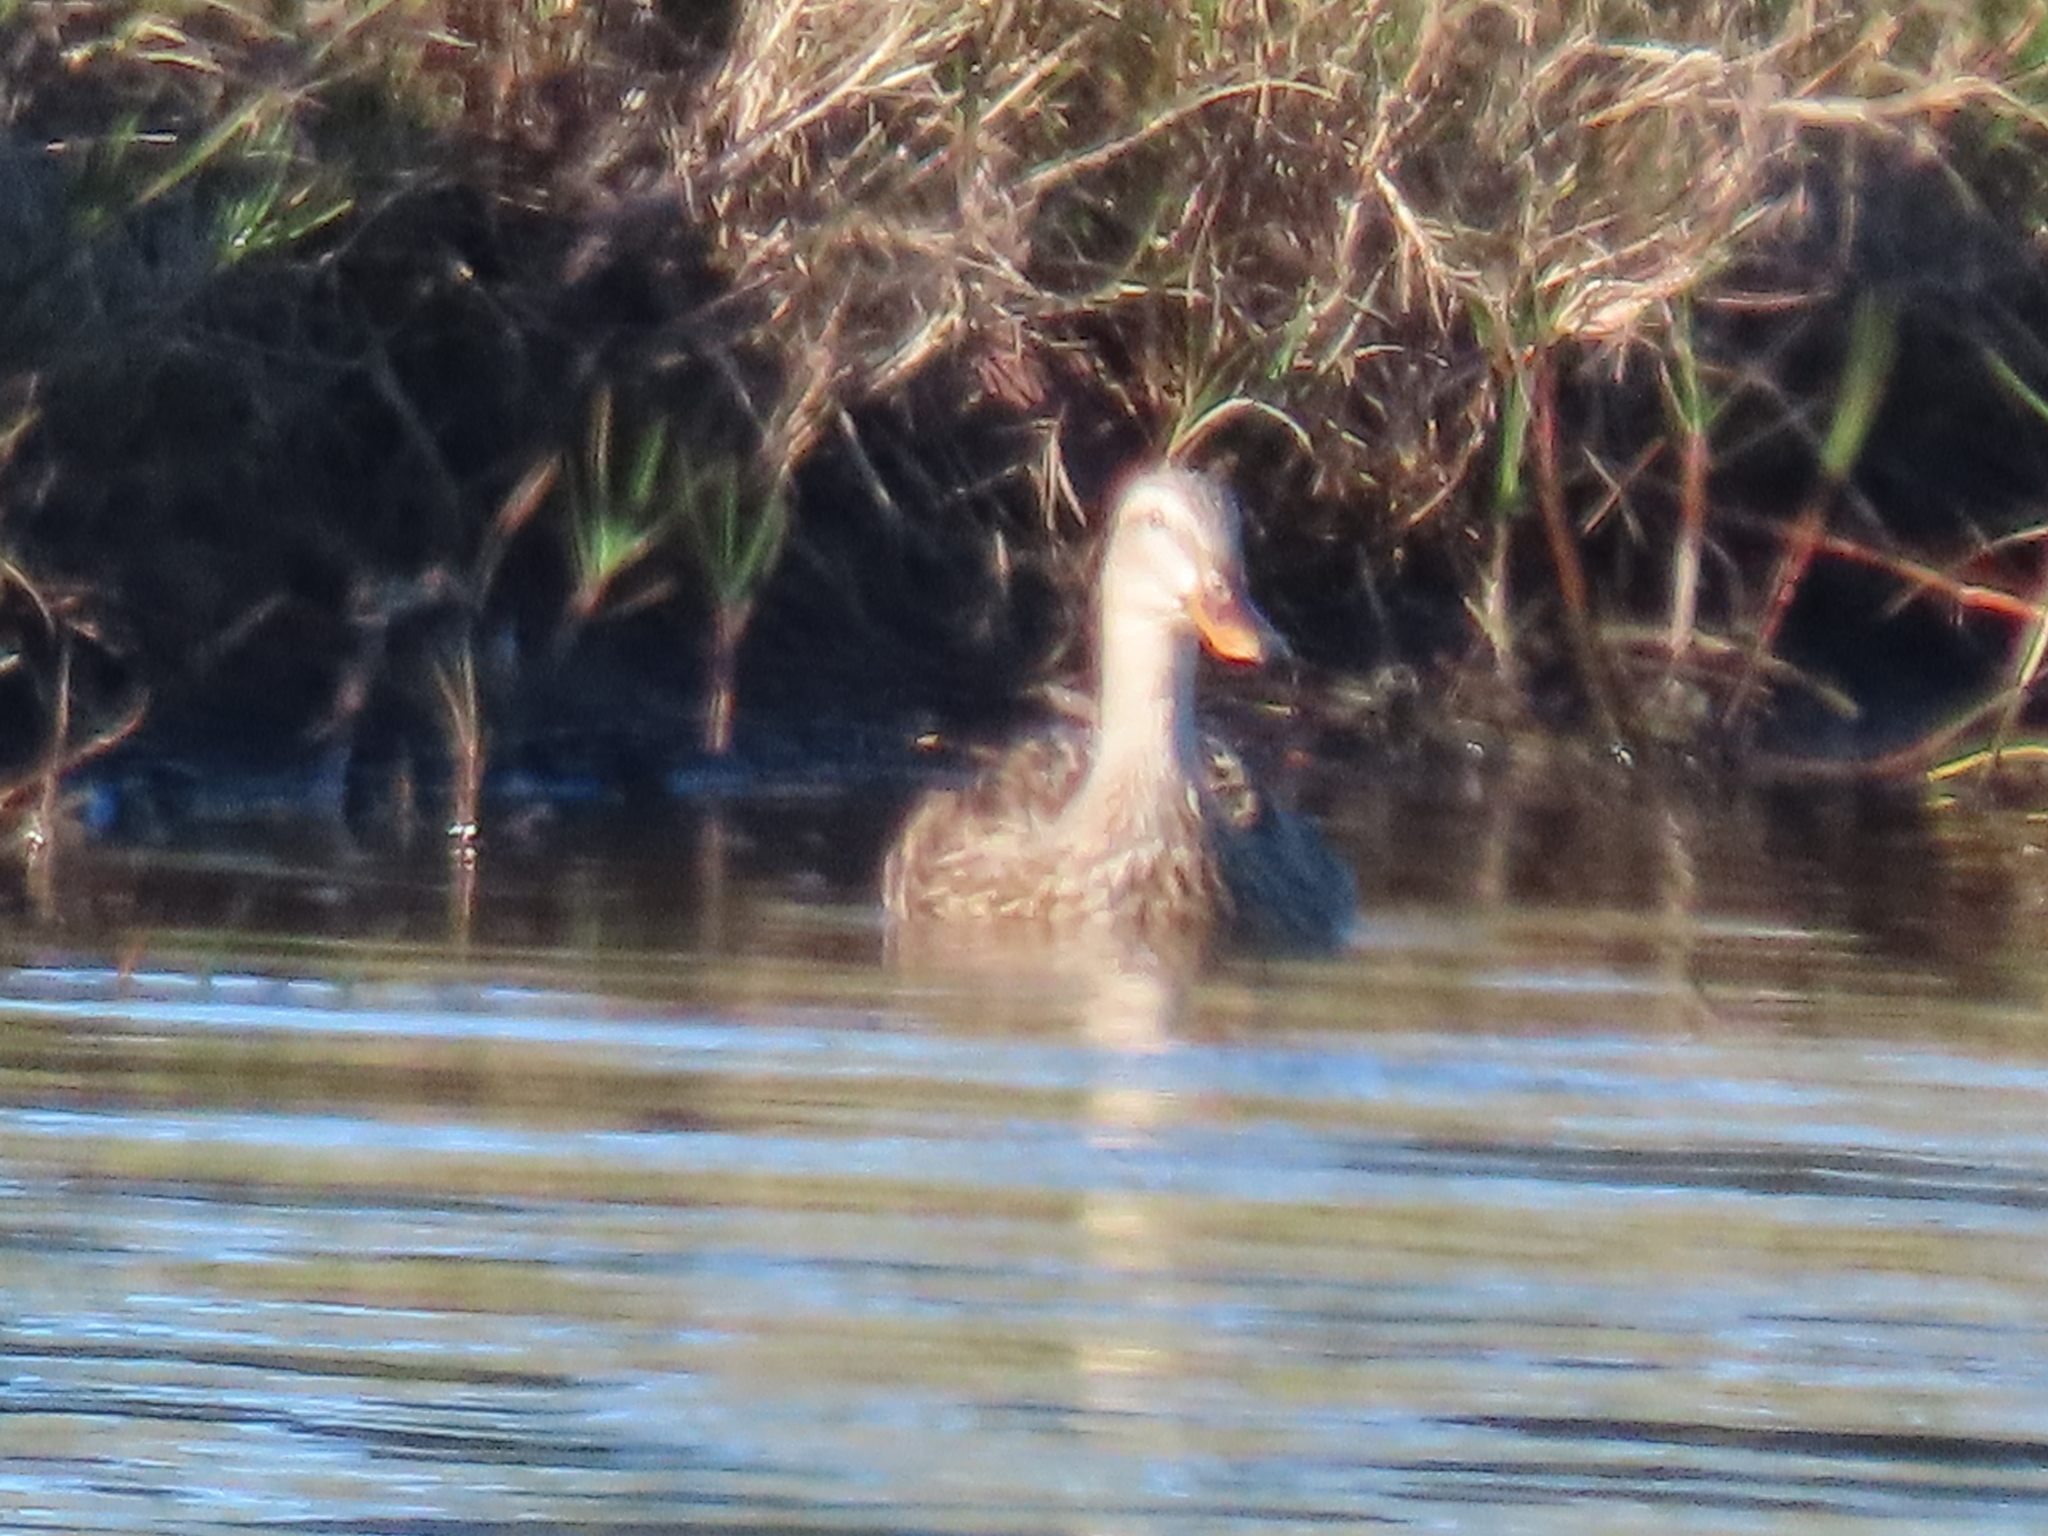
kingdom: Animalia
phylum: Chordata
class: Aves
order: Anseriformes
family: Anatidae
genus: Anas
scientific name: Anas
